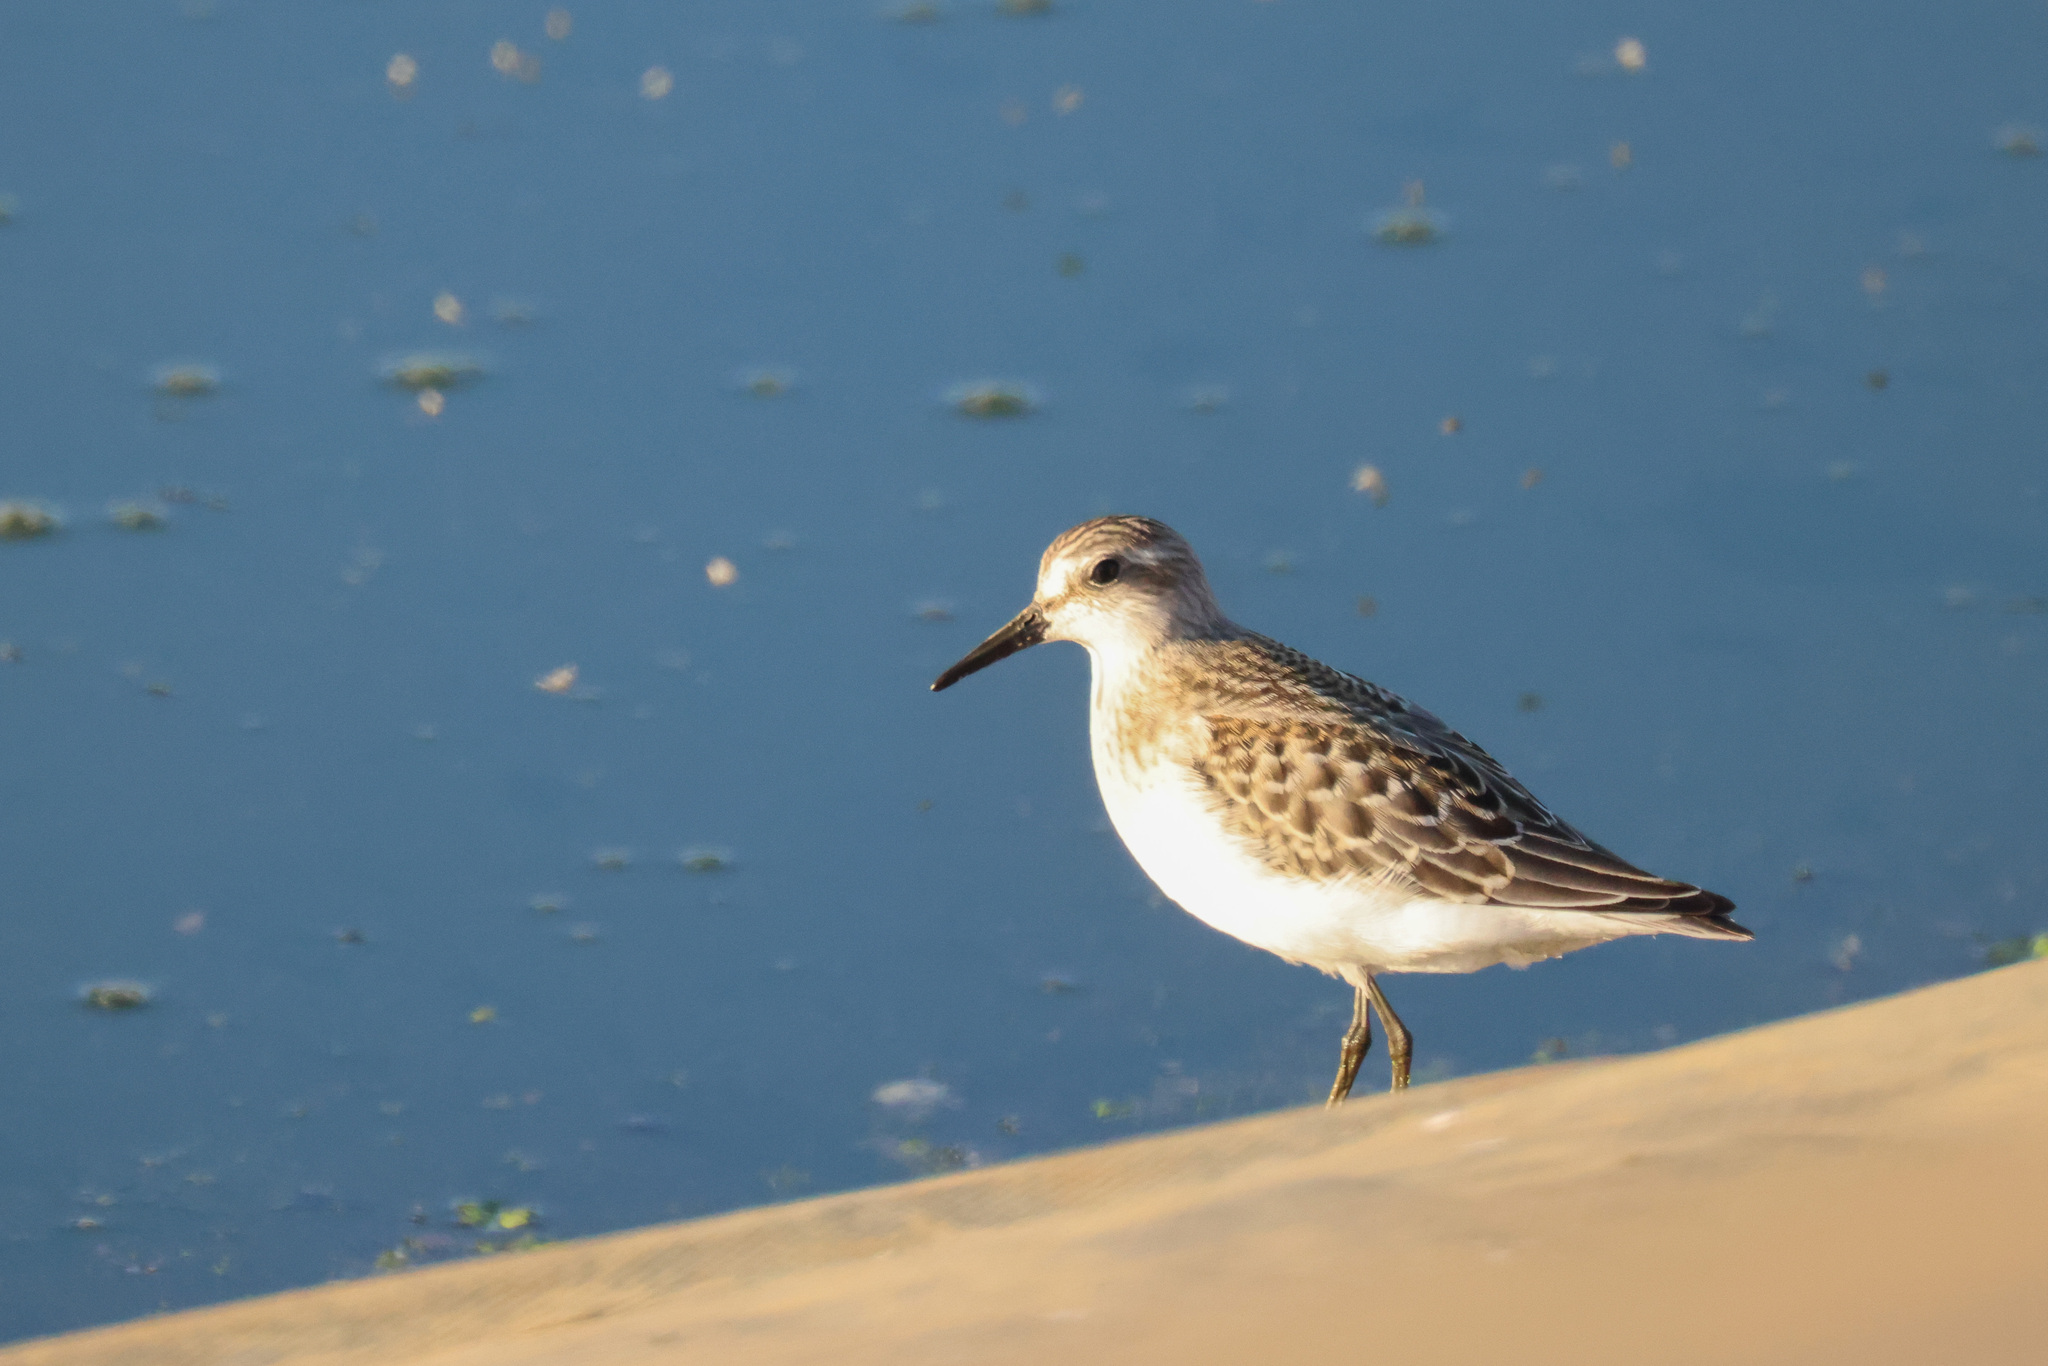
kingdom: Animalia
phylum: Chordata
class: Aves
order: Charadriiformes
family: Scolopacidae
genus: Calidris
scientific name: Calidris pusilla
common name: Semipalmated sandpiper
